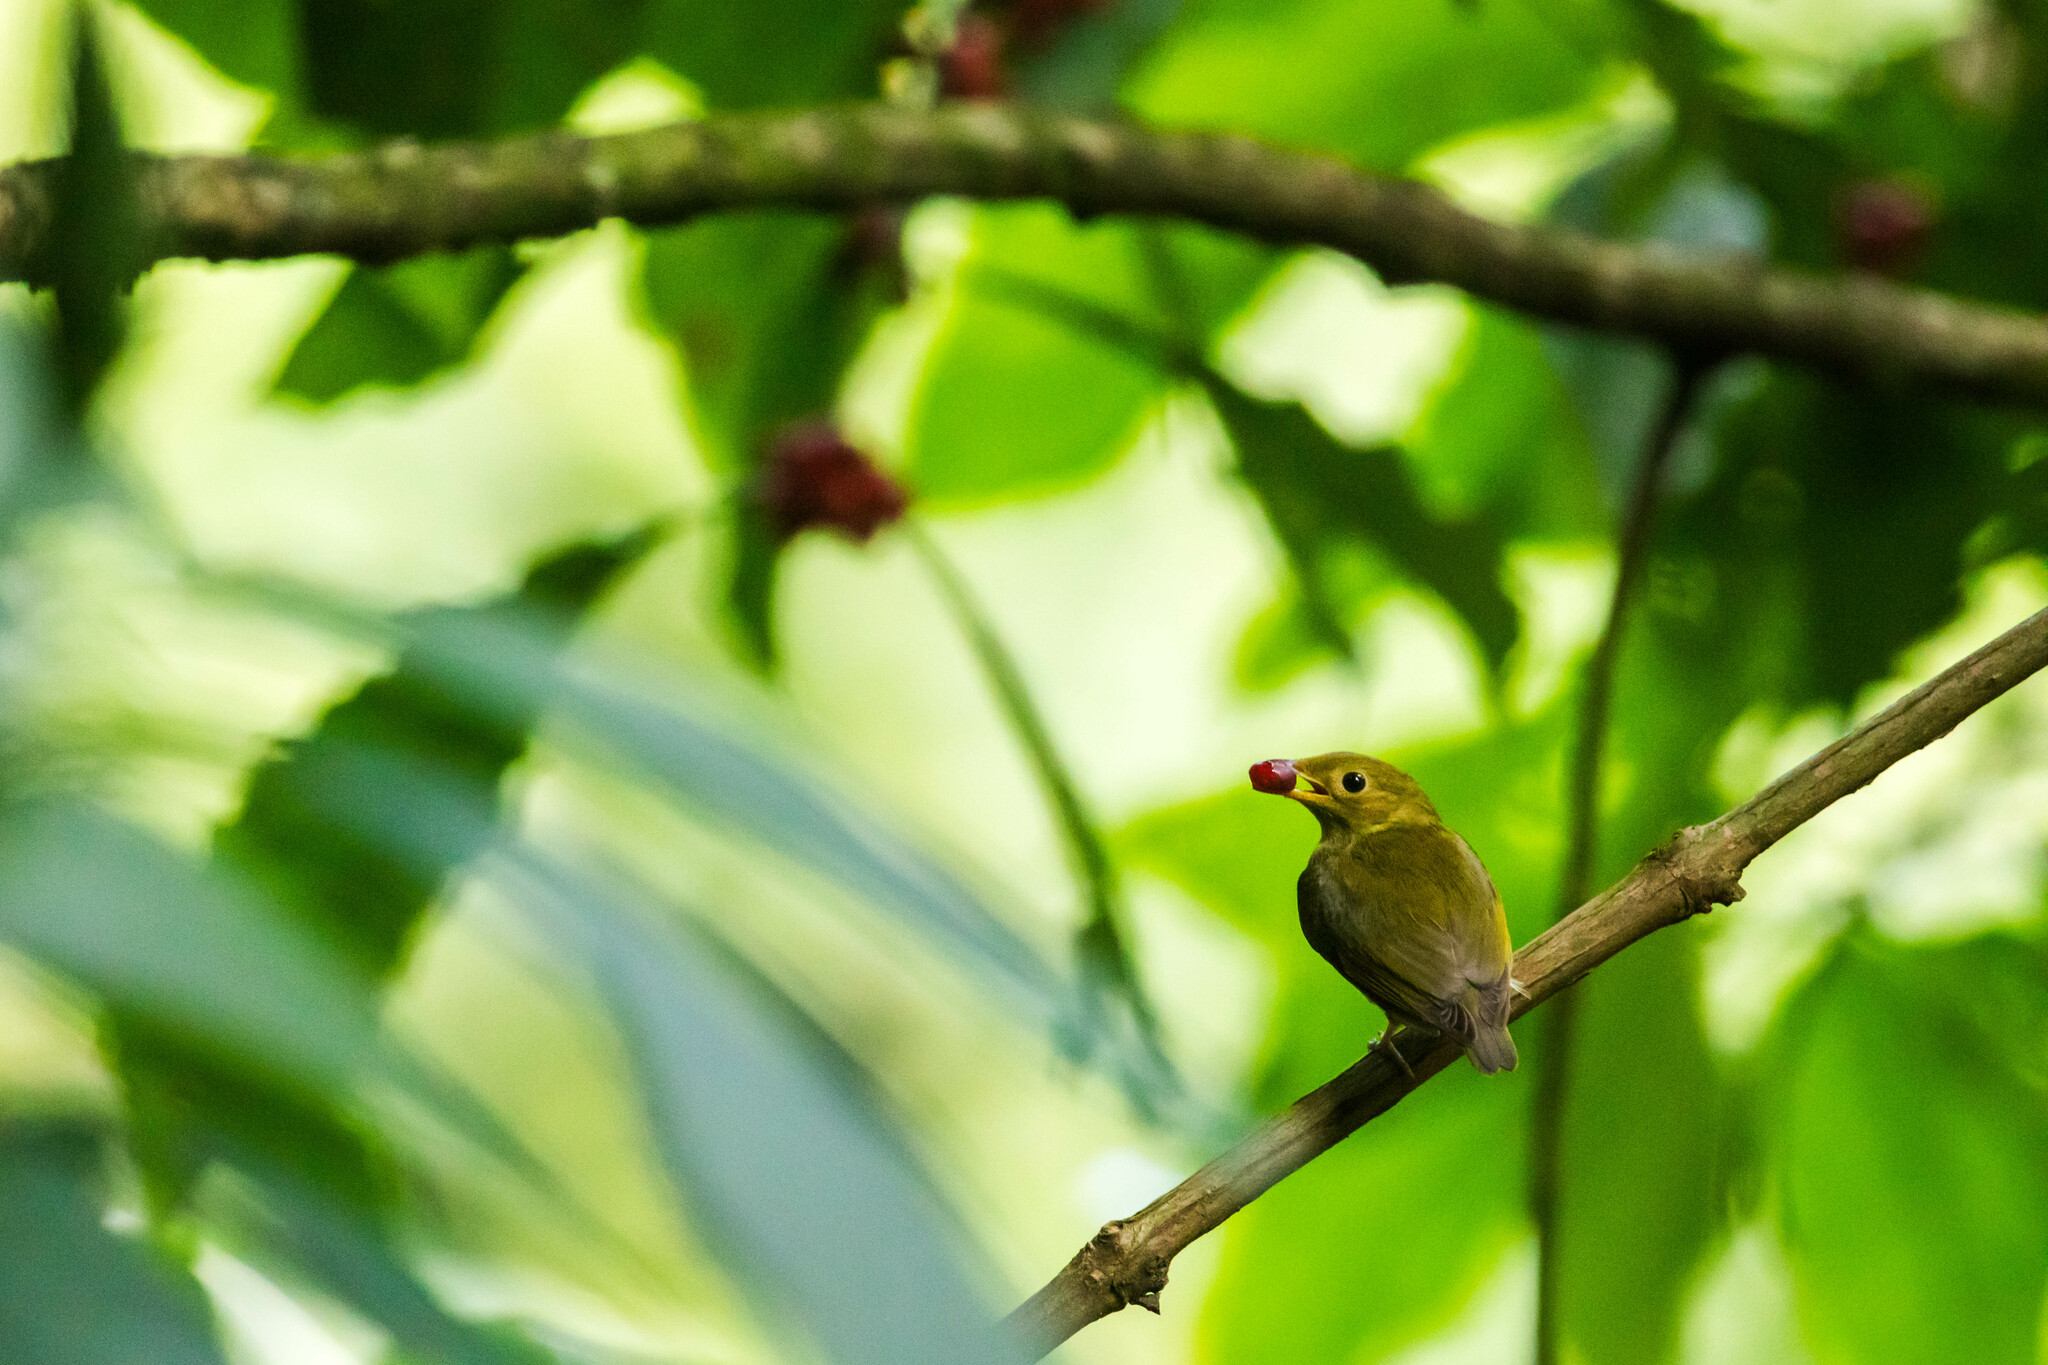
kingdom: Animalia
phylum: Chordata
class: Aves
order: Passeriformes
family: Pipridae
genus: Pipra
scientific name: Pipra erythrocephala
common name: Golden-headed manakin
